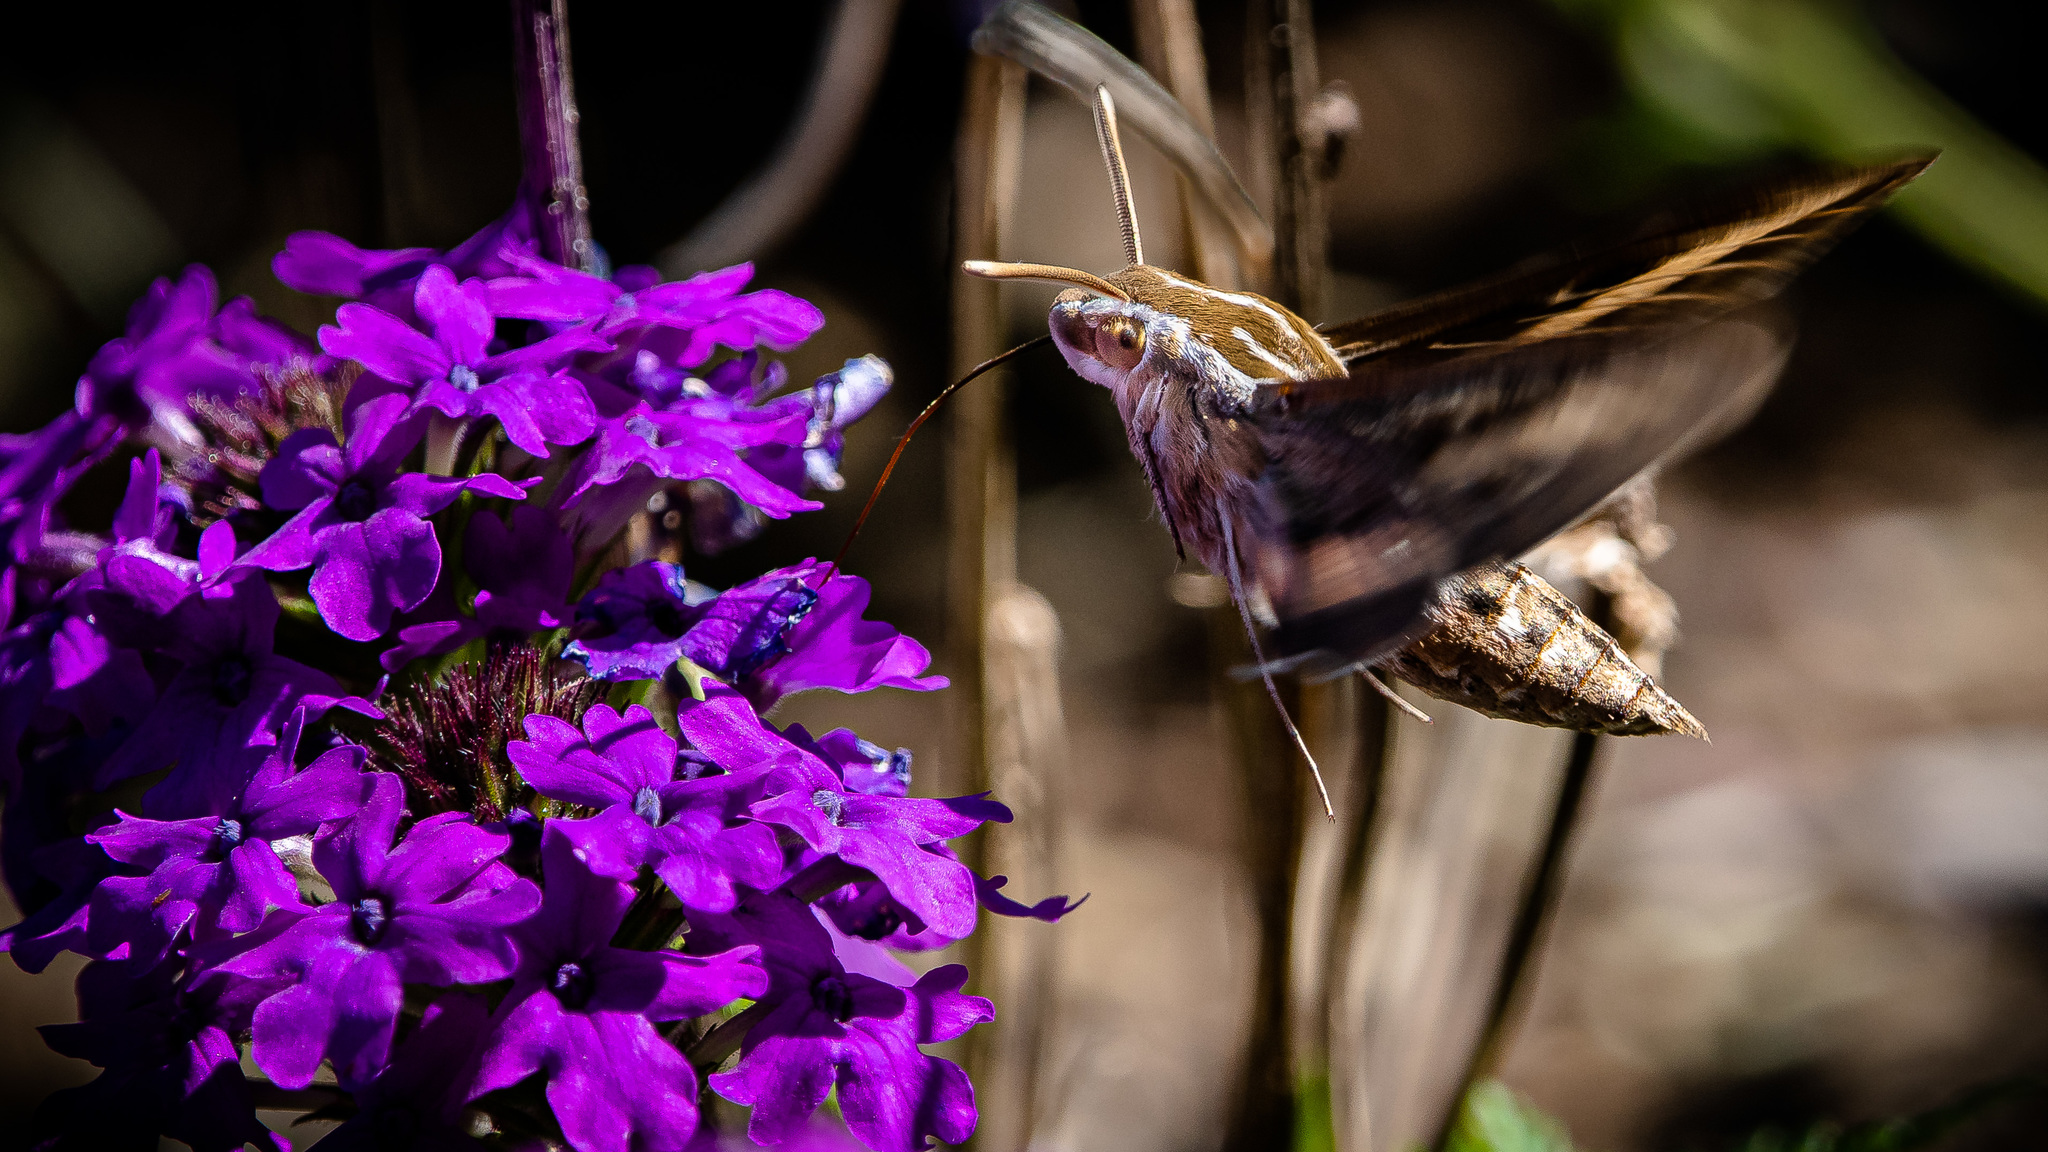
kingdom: Animalia
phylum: Arthropoda
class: Insecta
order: Lepidoptera
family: Sphingidae
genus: Hyles
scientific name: Hyles lineata
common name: White-lined sphinx
